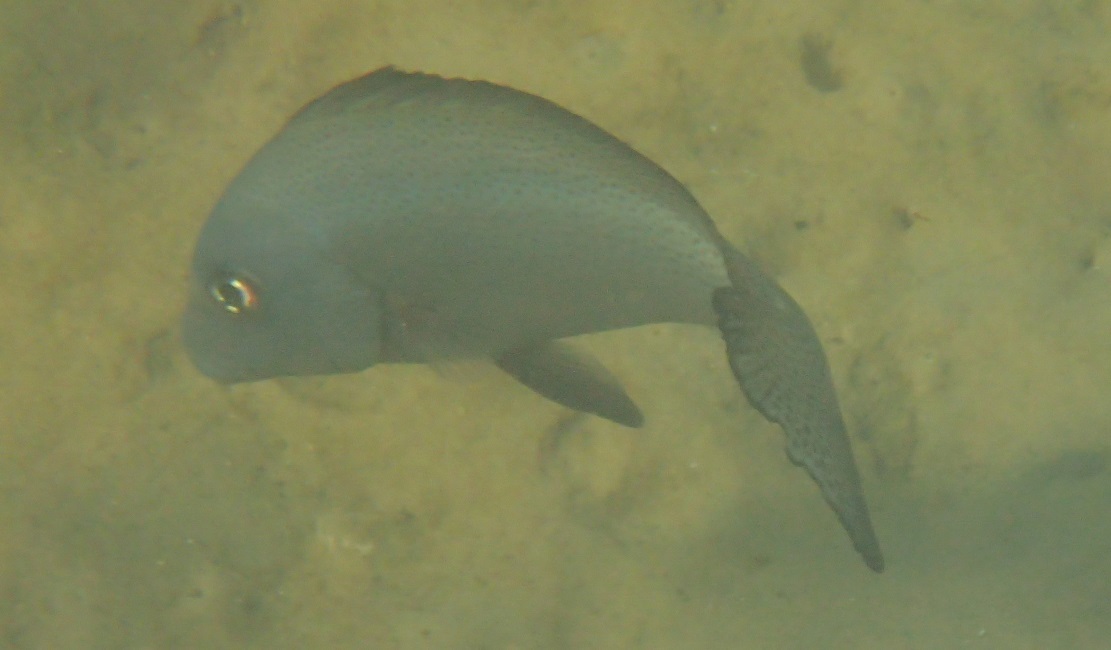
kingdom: Animalia
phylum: Chordata
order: Perciformes
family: Haemulidae
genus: Diagramma
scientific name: Diagramma pictum
